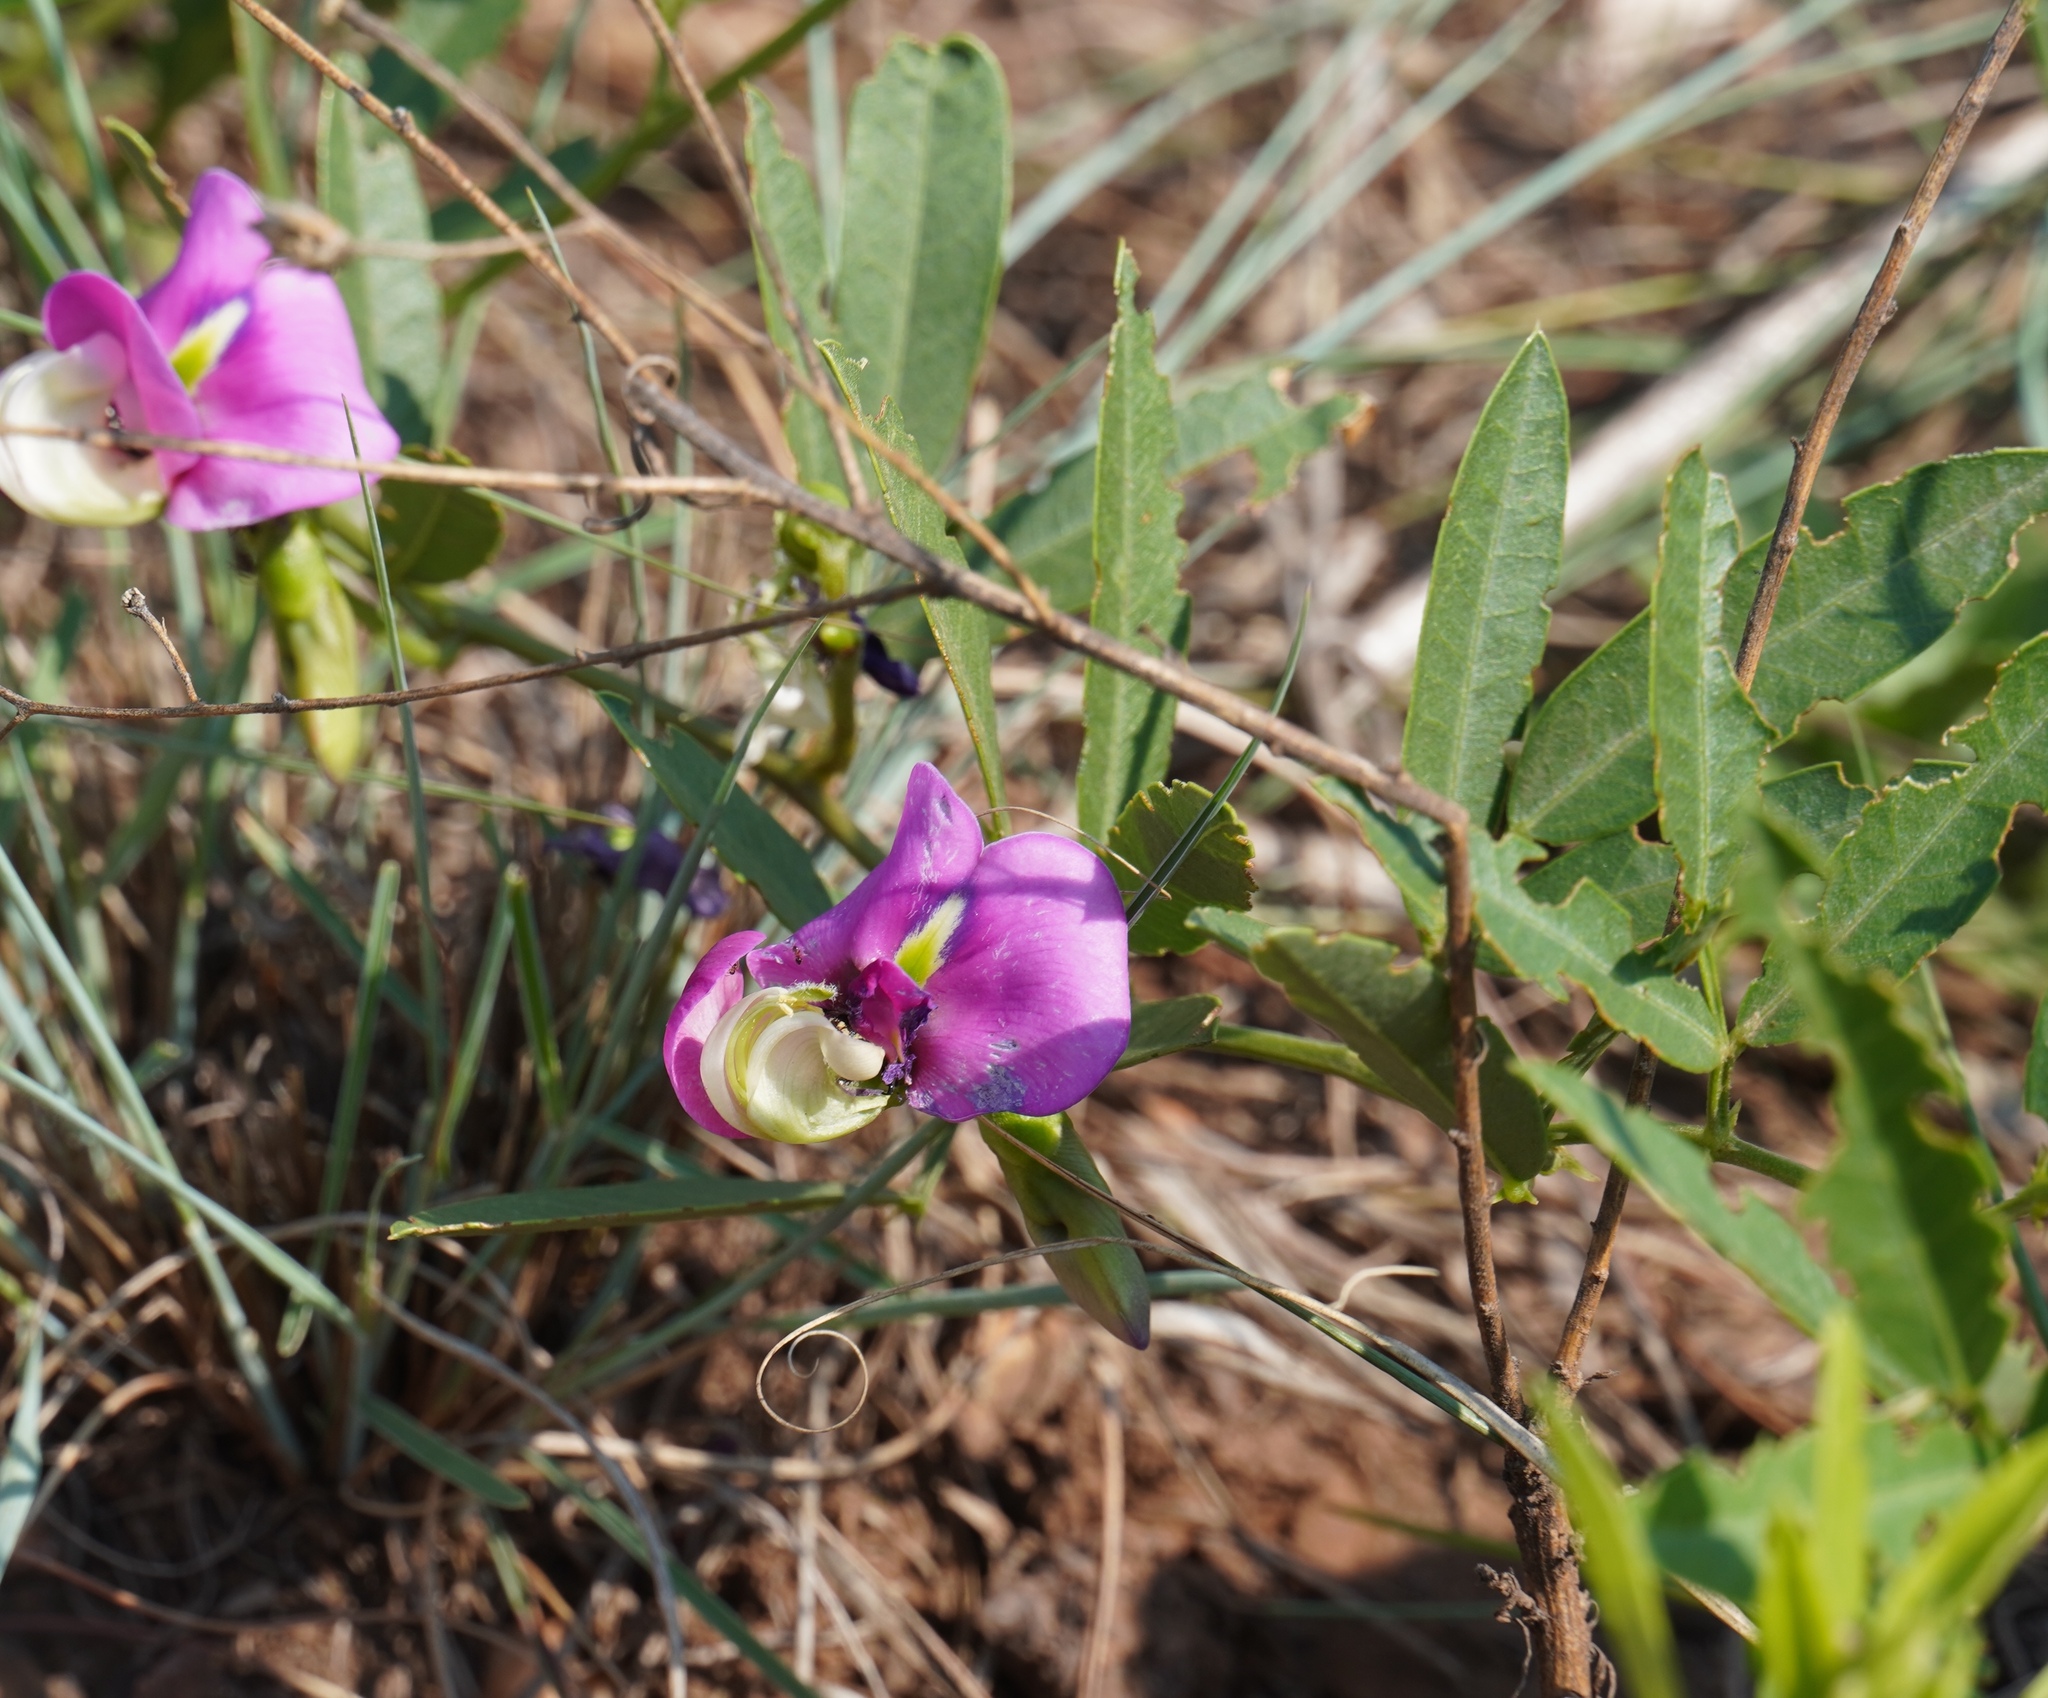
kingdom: Plantae
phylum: Tracheophyta
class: Magnoliopsida
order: Fabales
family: Fabaceae
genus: Sphenostylis
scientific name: Sphenostylis angustifolia
